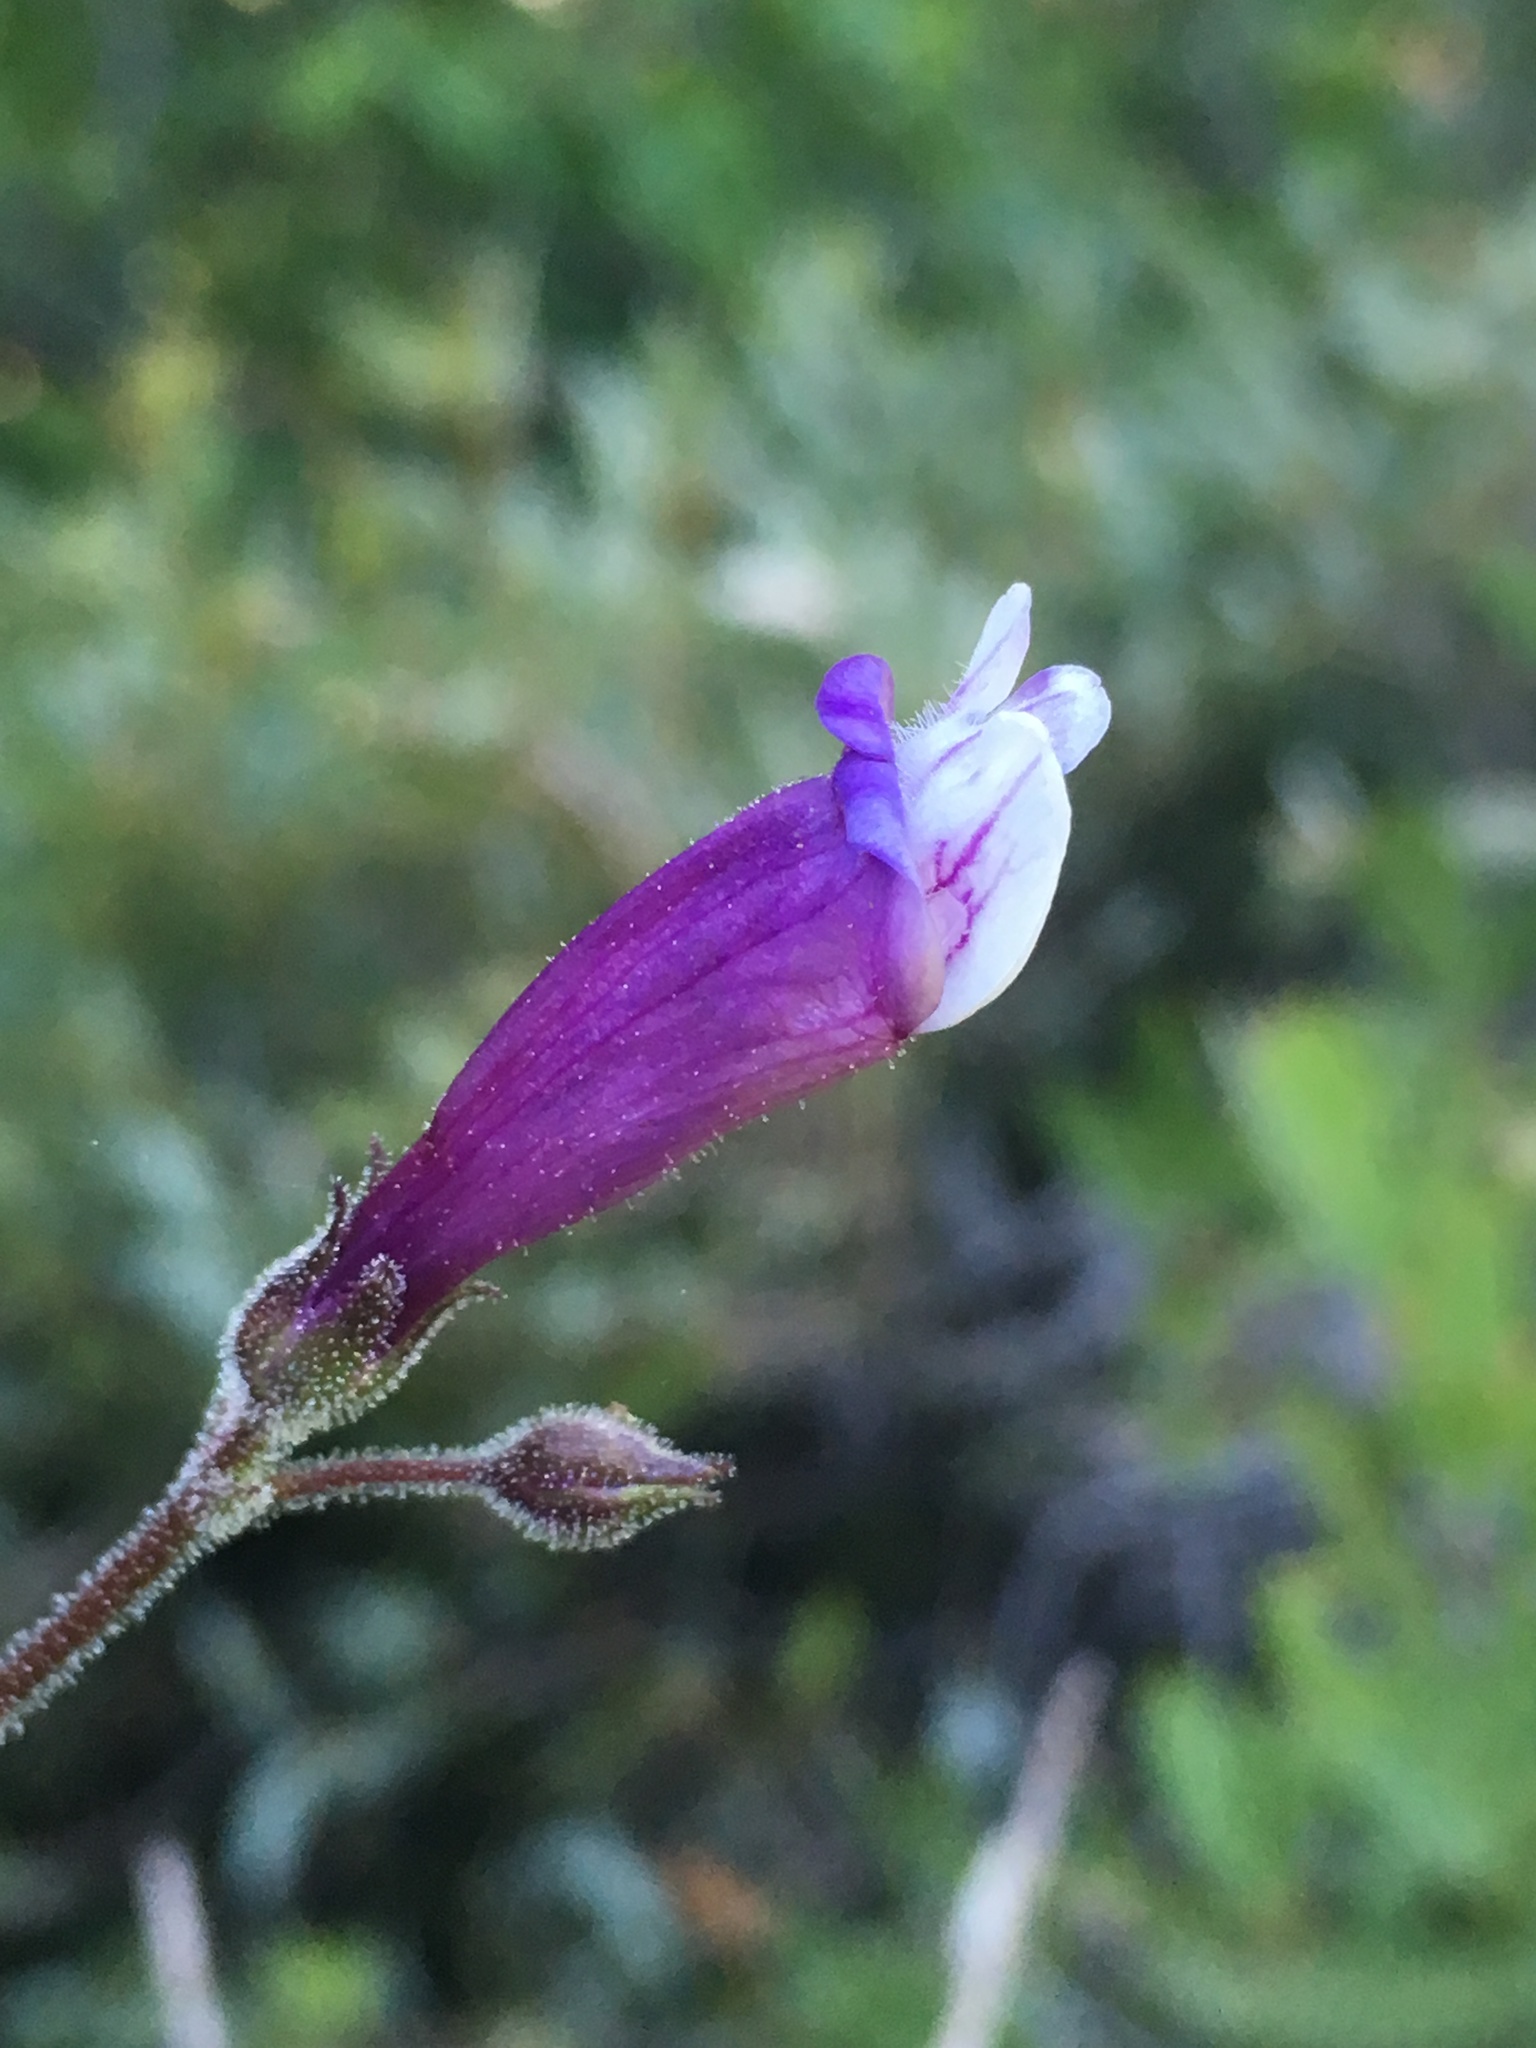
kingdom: Plantae
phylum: Tracheophyta
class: Magnoliopsida
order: Lamiales
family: Plantaginaceae
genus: Penstemon
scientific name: Penstemon personatus
